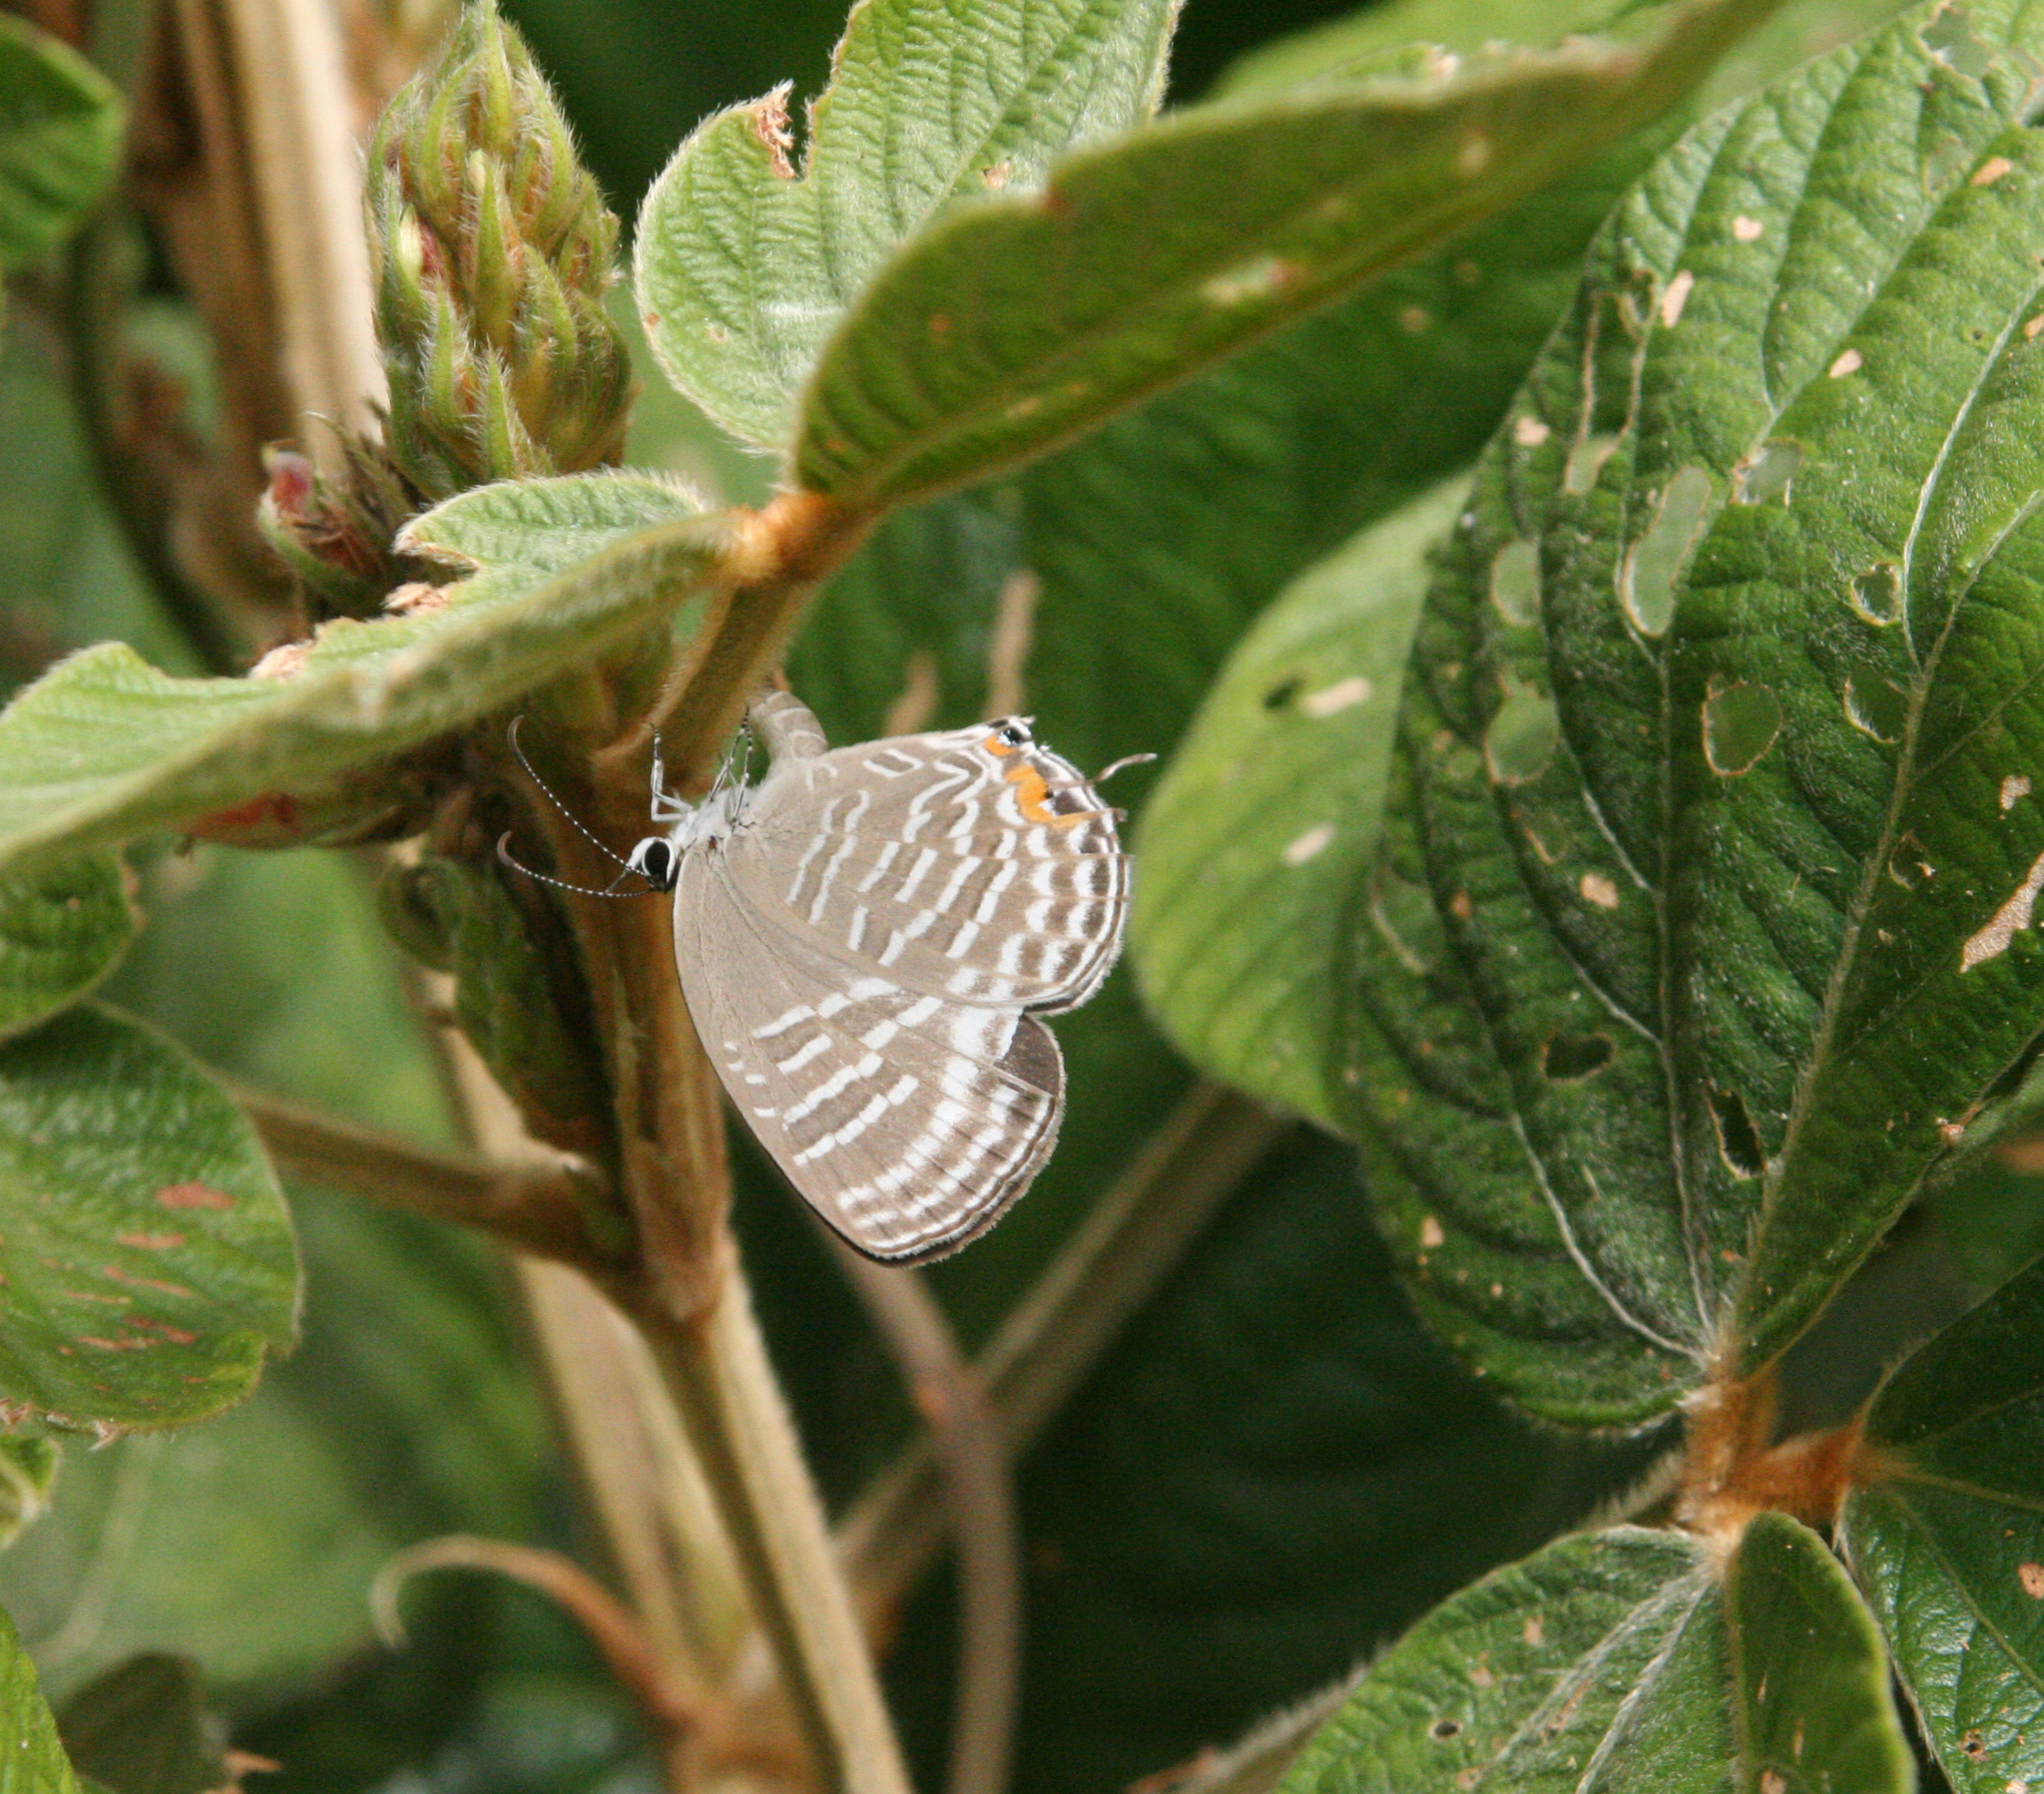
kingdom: Animalia
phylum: Arthropoda
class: Insecta
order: Lepidoptera
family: Lycaenidae
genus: Jamides
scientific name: Jamides celeno
